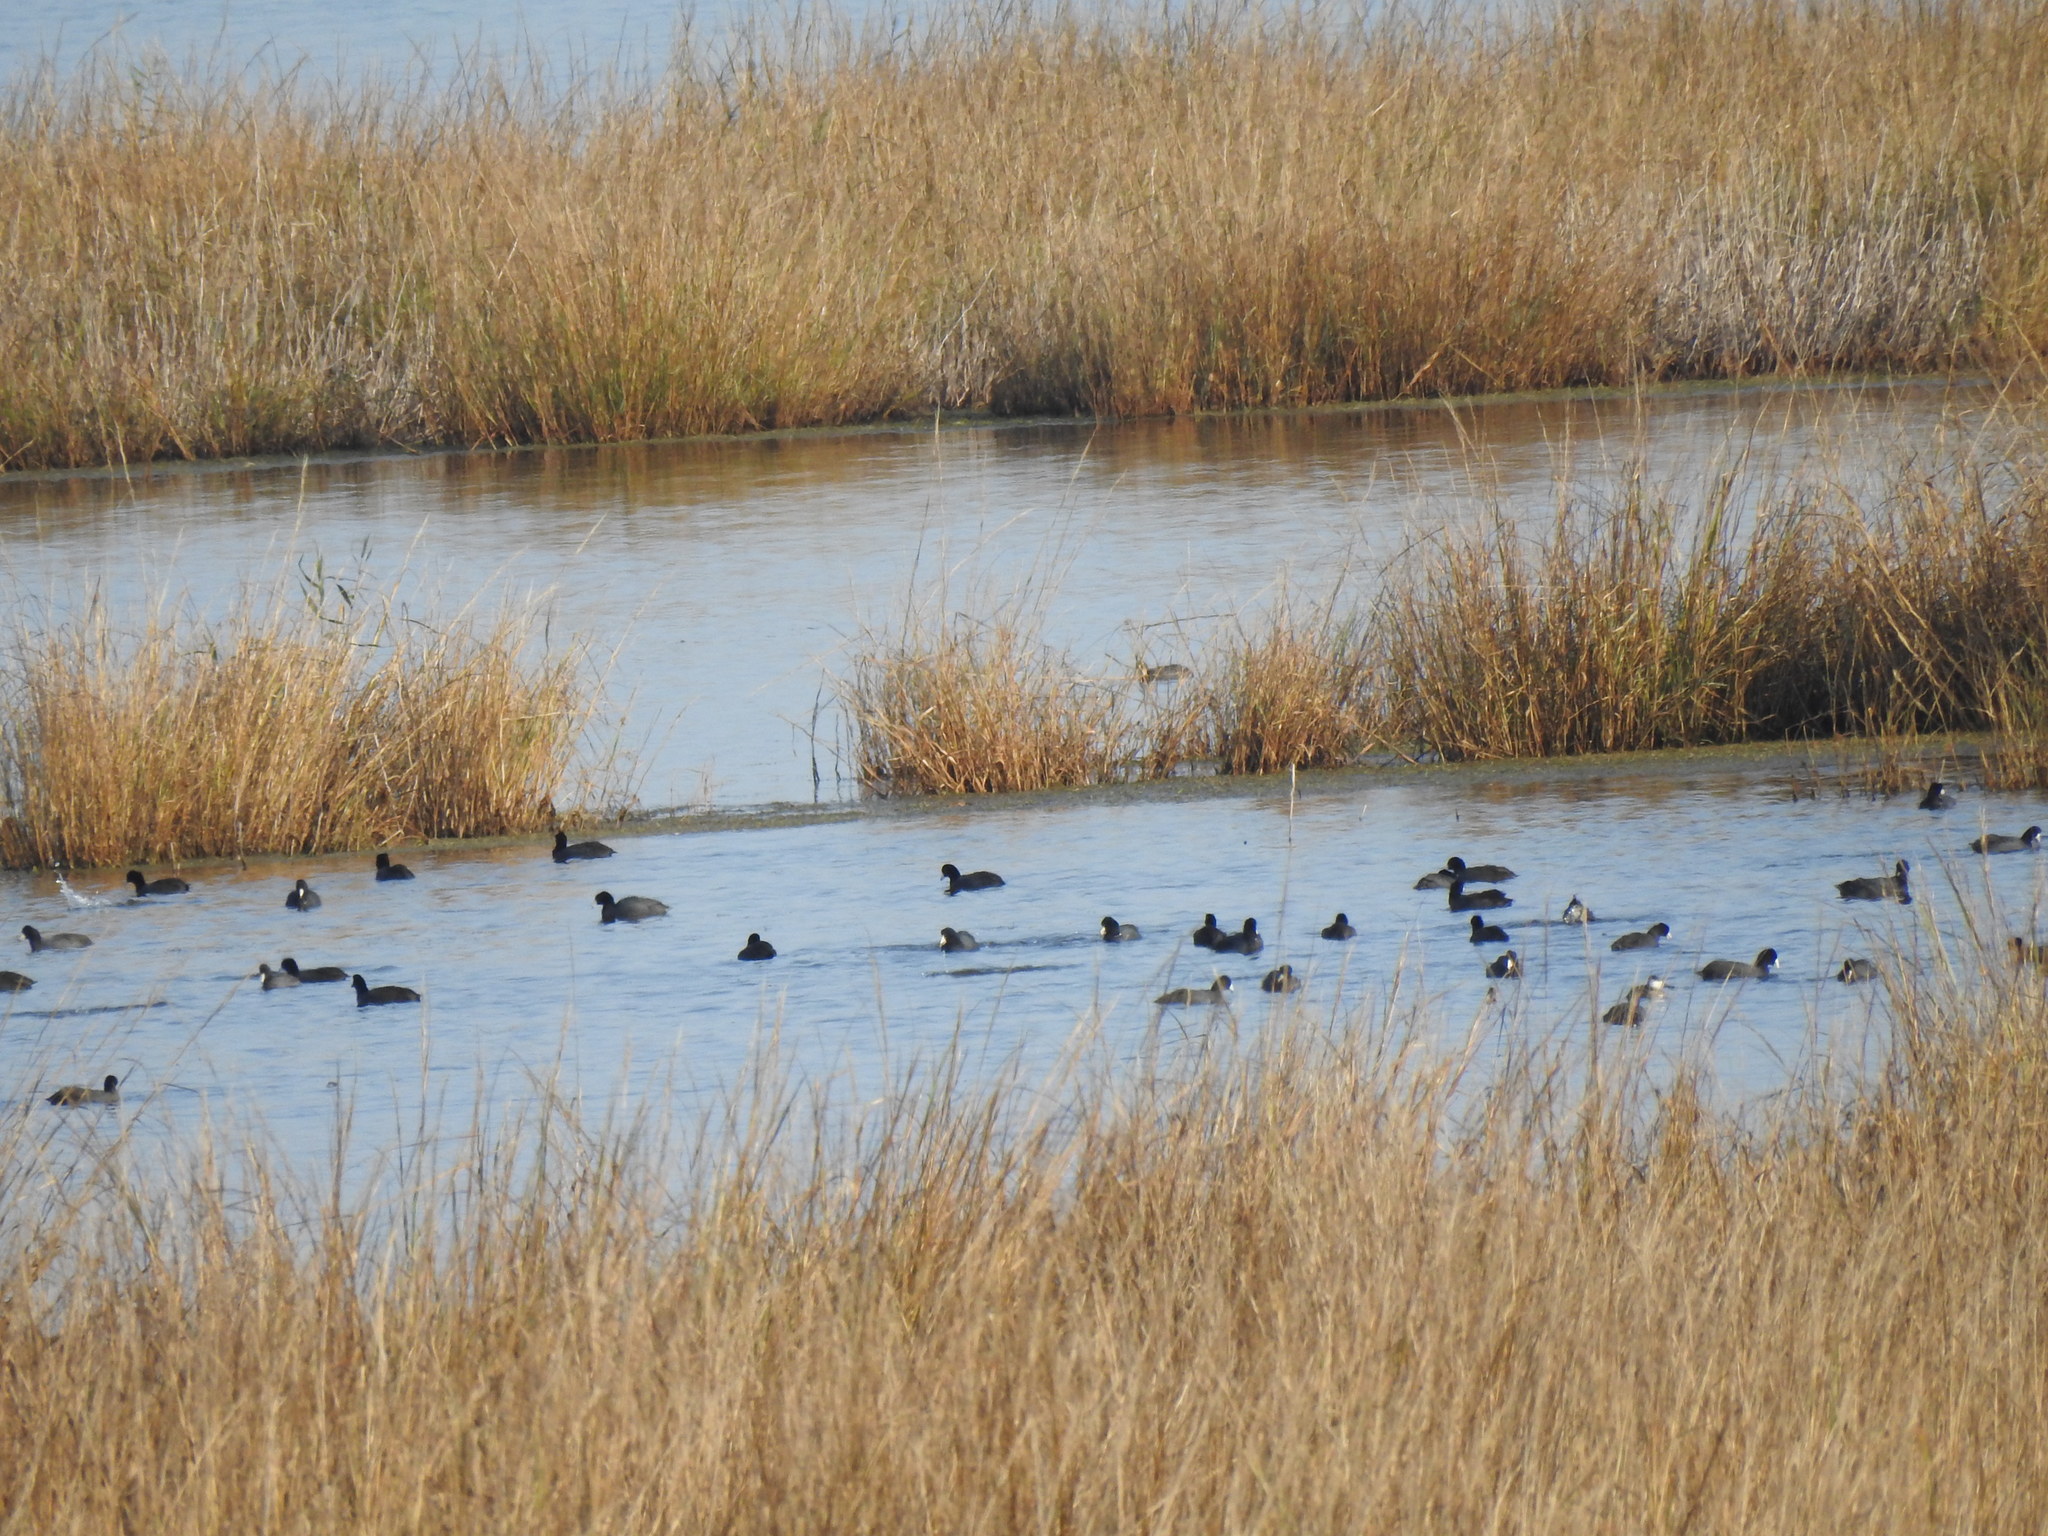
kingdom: Animalia
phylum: Chordata
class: Aves
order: Gruiformes
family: Rallidae
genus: Fulica
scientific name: Fulica americana
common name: American coot
